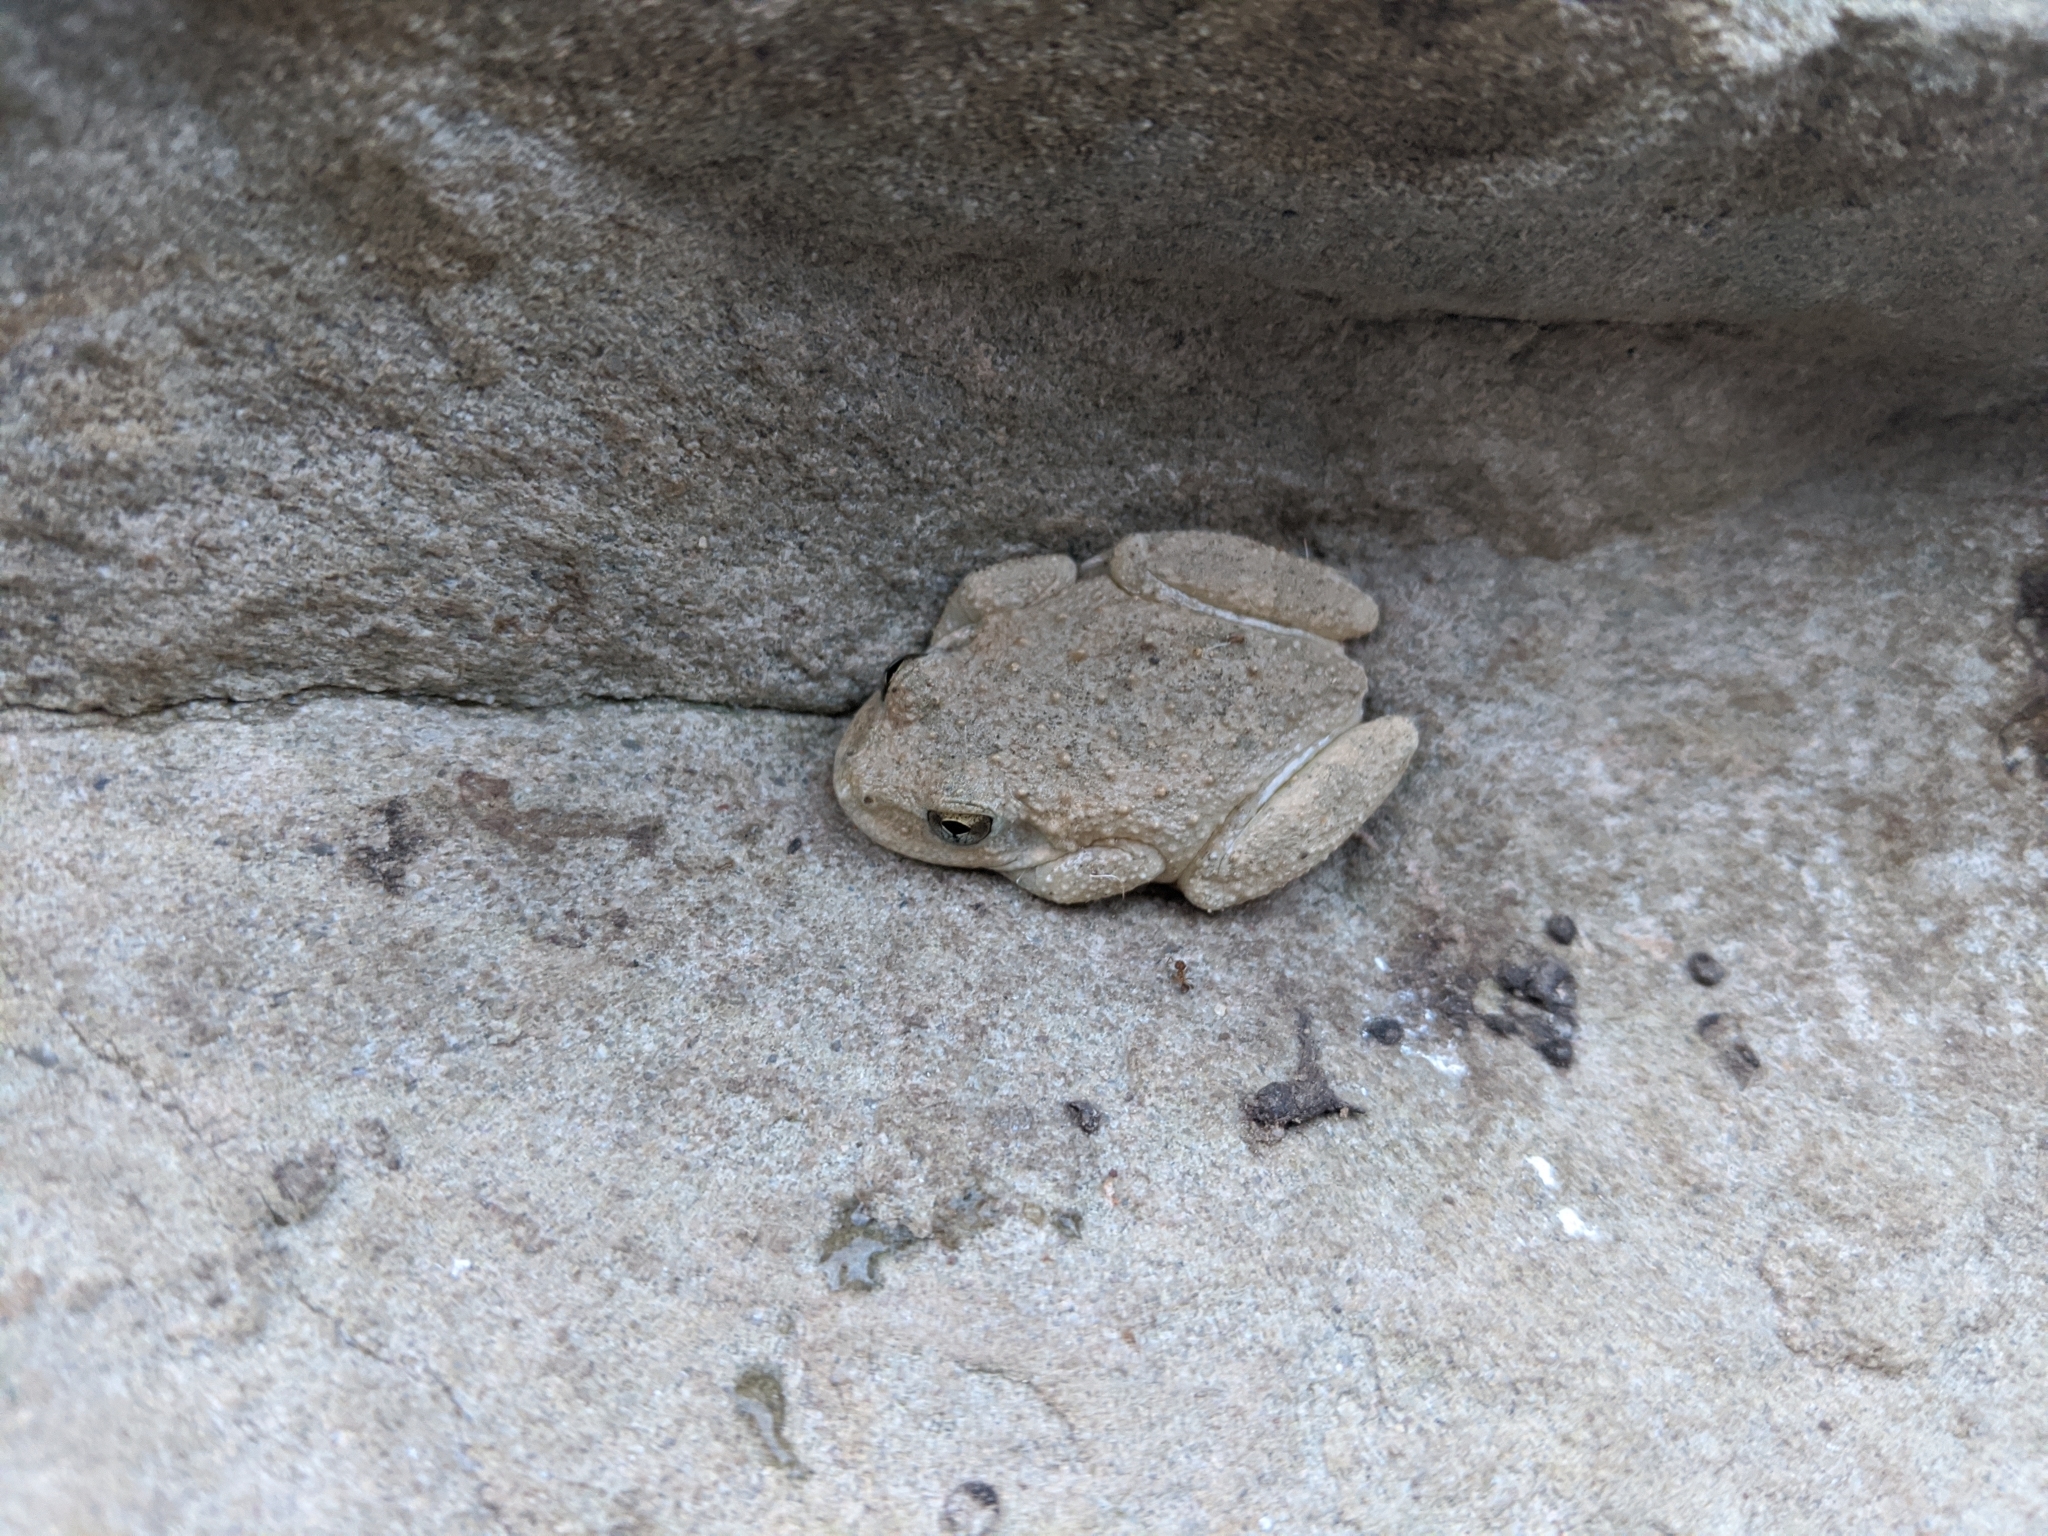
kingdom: Animalia
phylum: Chordata
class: Amphibia
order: Anura
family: Hylidae
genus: Pseudacris
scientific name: Pseudacris cadaverina
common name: California chorus frog
